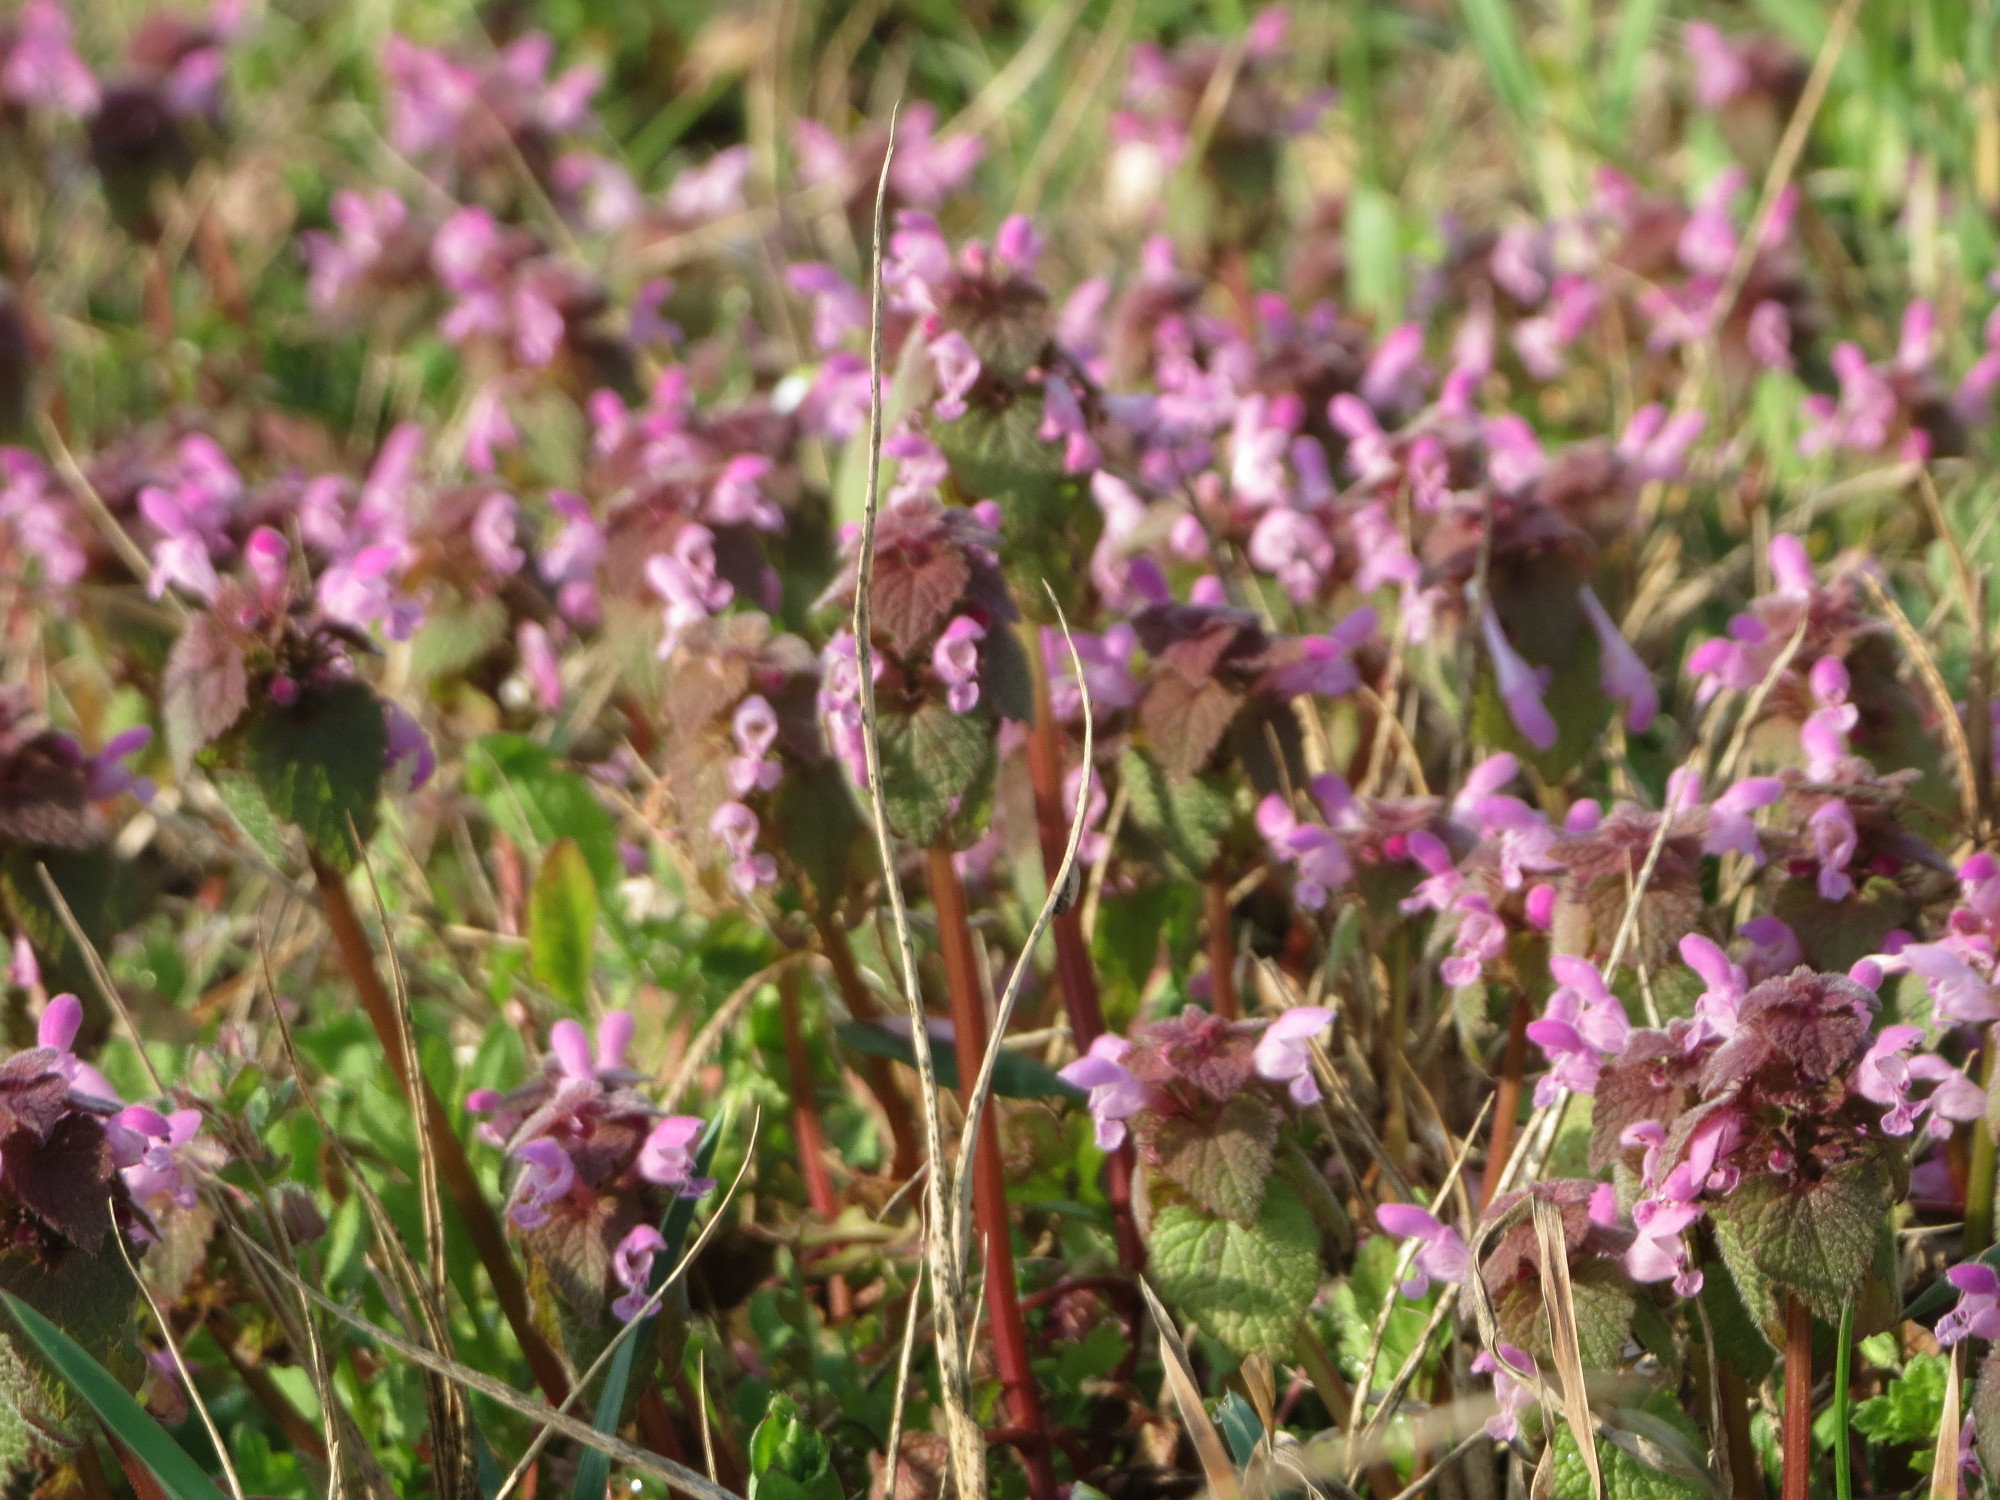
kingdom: Plantae
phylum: Tracheophyta
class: Magnoliopsida
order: Lamiales
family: Lamiaceae
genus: Lamium
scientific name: Lamium purpureum
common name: Red dead-nettle
